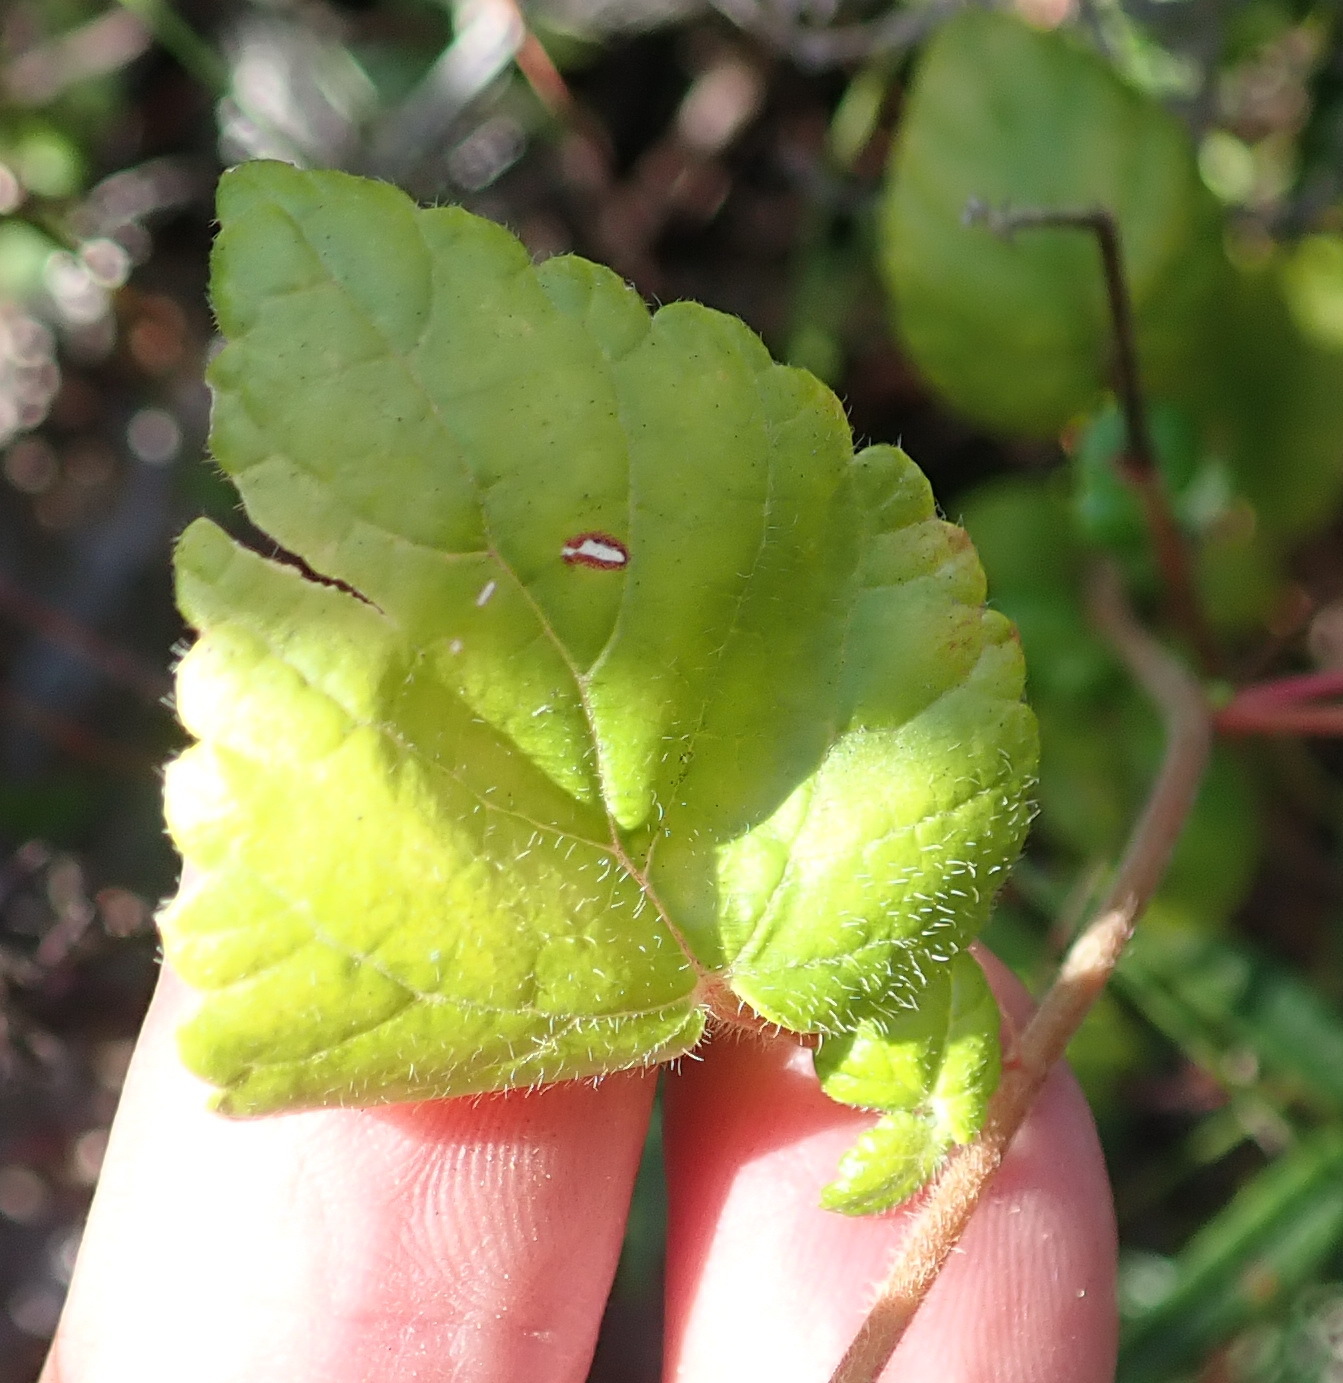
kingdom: Plantae
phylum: Tracheophyta
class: Magnoliopsida
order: Malpighiales
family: Euphorbiaceae
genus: Bernardia
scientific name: Bernardia corensis
